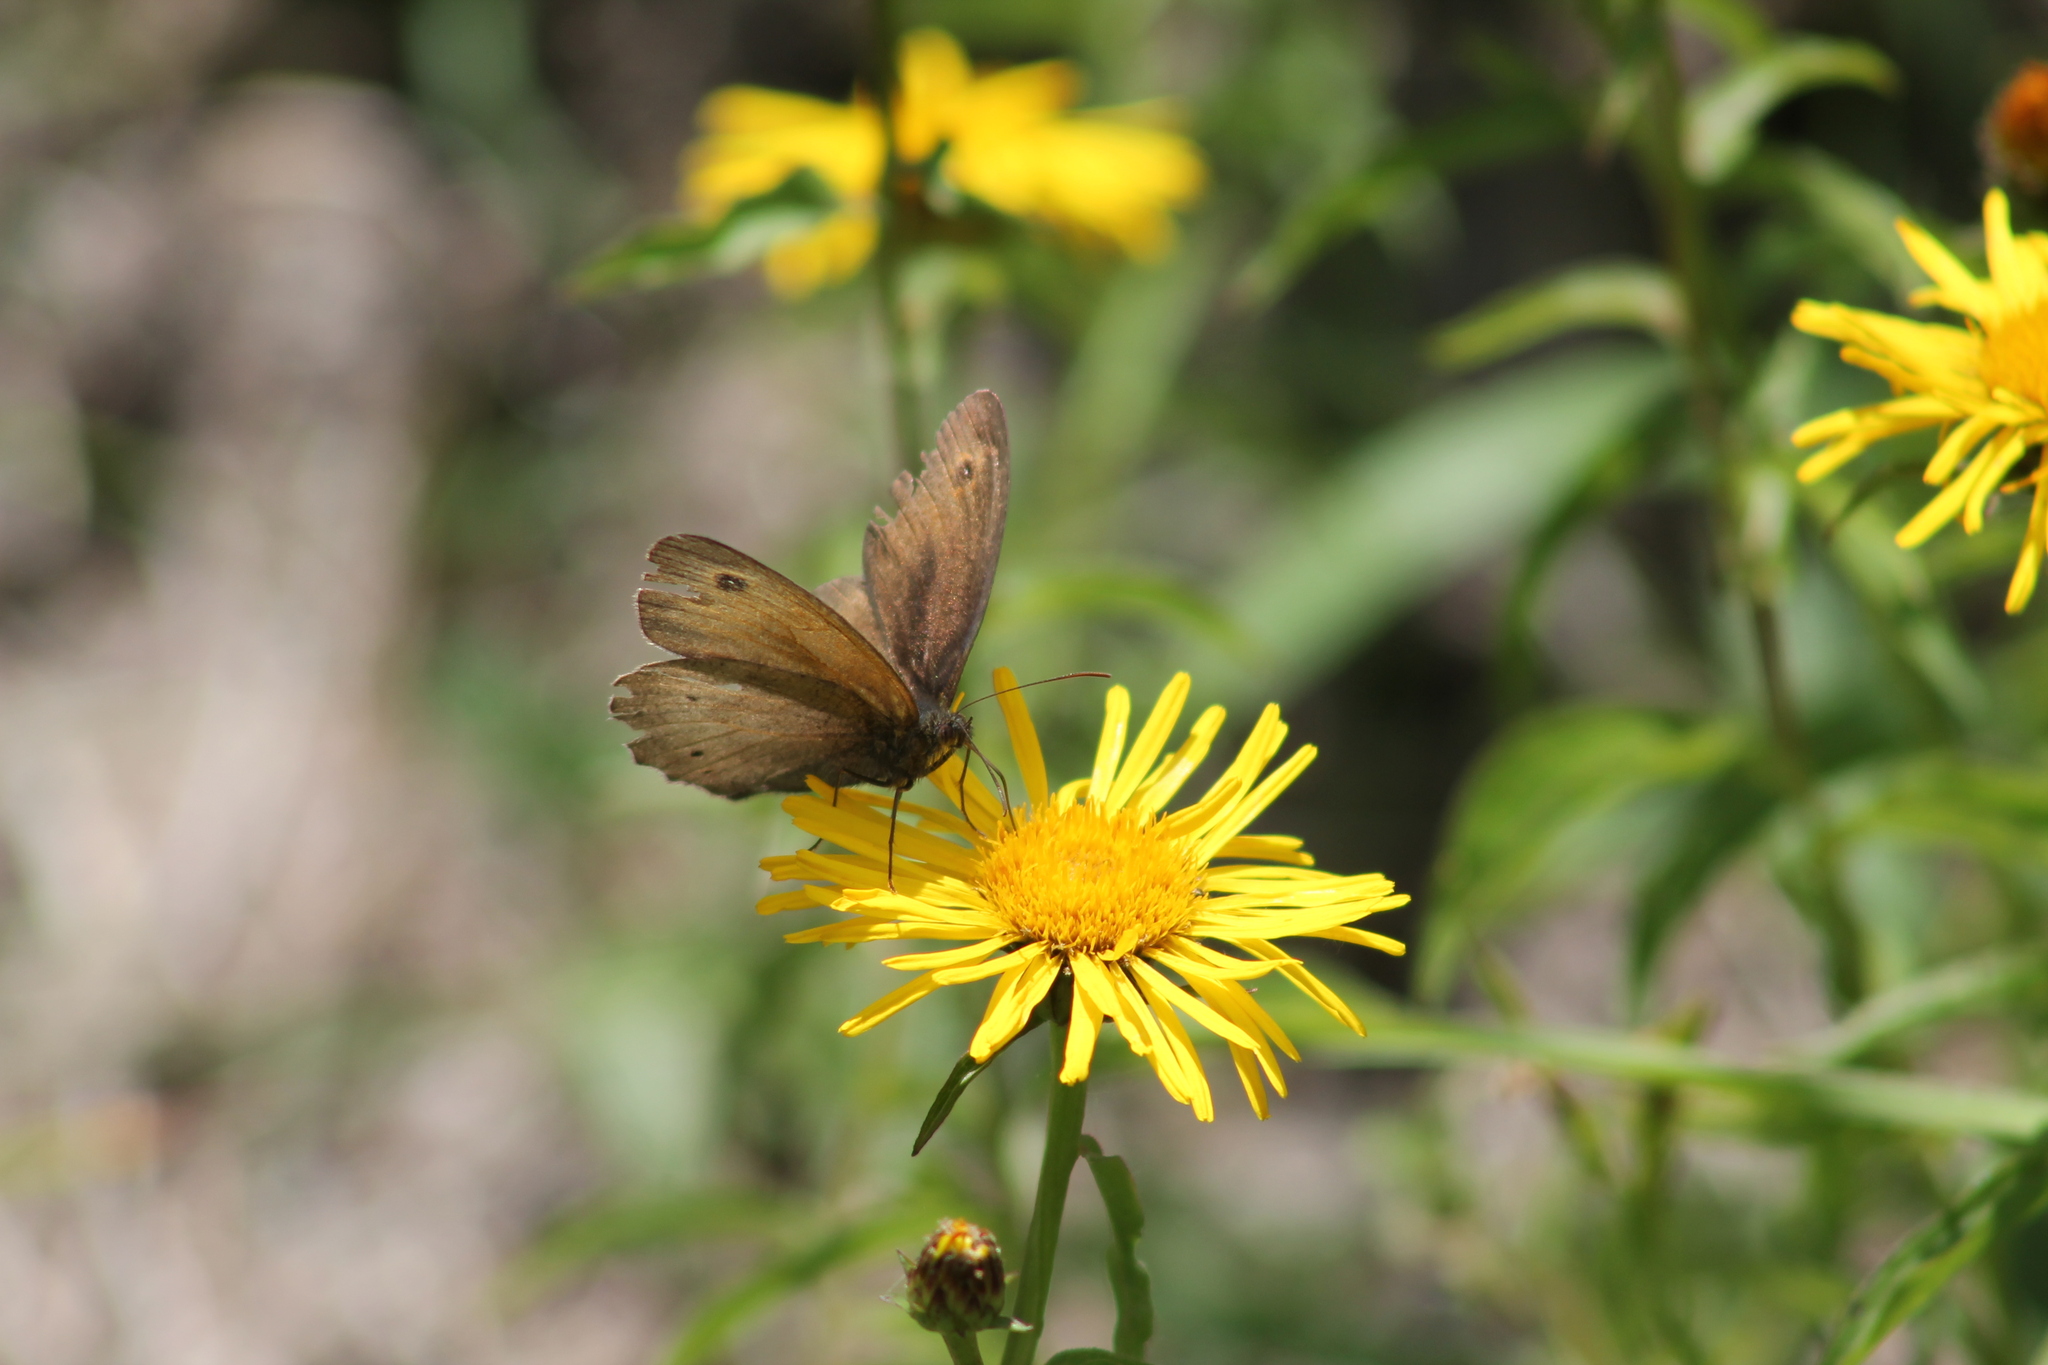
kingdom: Animalia
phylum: Arthropoda
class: Insecta
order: Lepidoptera
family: Nymphalidae
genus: Maniola
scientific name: Maniola jurtina
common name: Meadow brown
